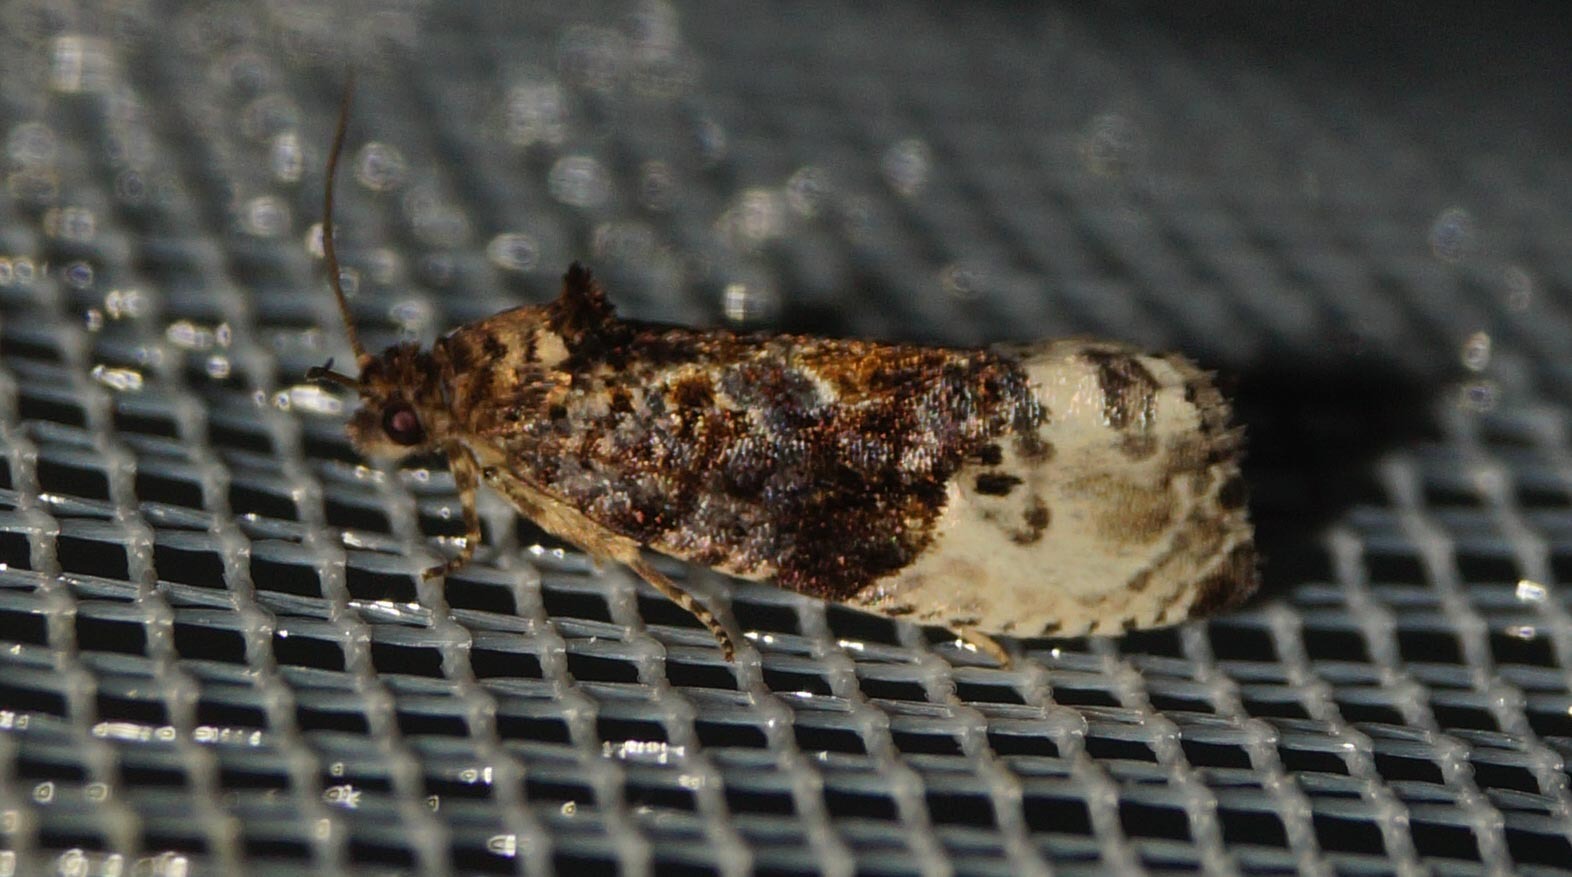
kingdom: Animalia
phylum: Arthropoda
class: Insecta
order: Lepidoptera
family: Tortricidae
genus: Hedya
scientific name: Hedya nubiferana
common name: Marbled orchard tortrix
